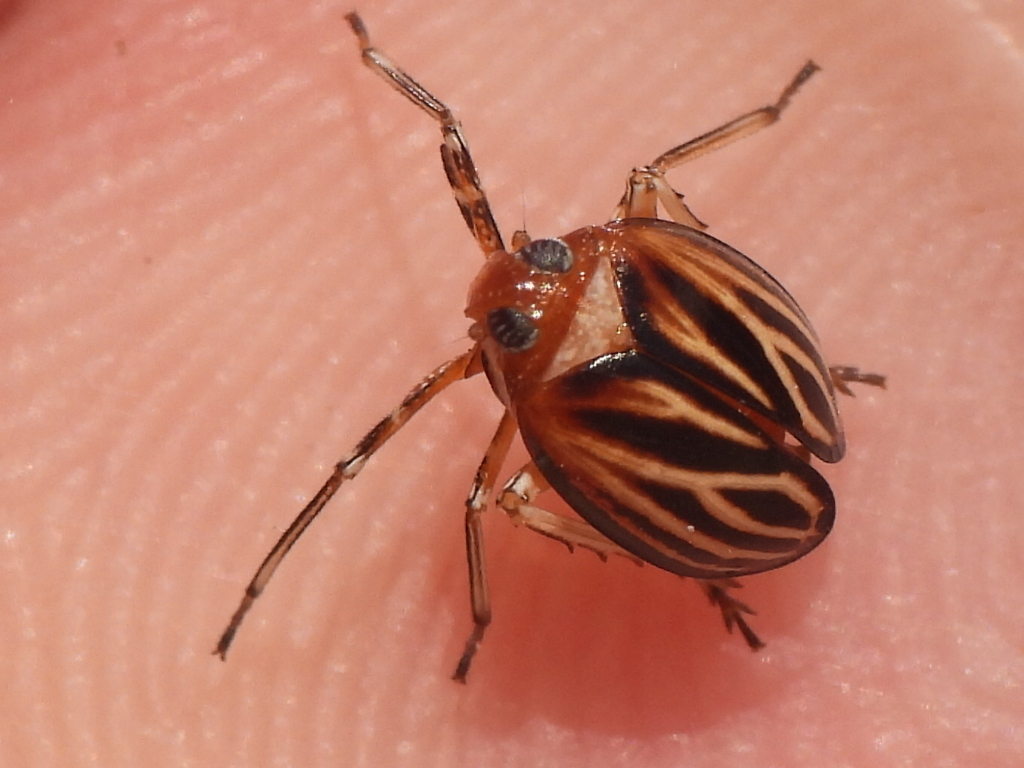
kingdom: Animalia
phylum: Arthropoda
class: Insecta
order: Hemiptera
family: Achilidae
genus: Isodaemon
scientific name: Isodaemon orontes
